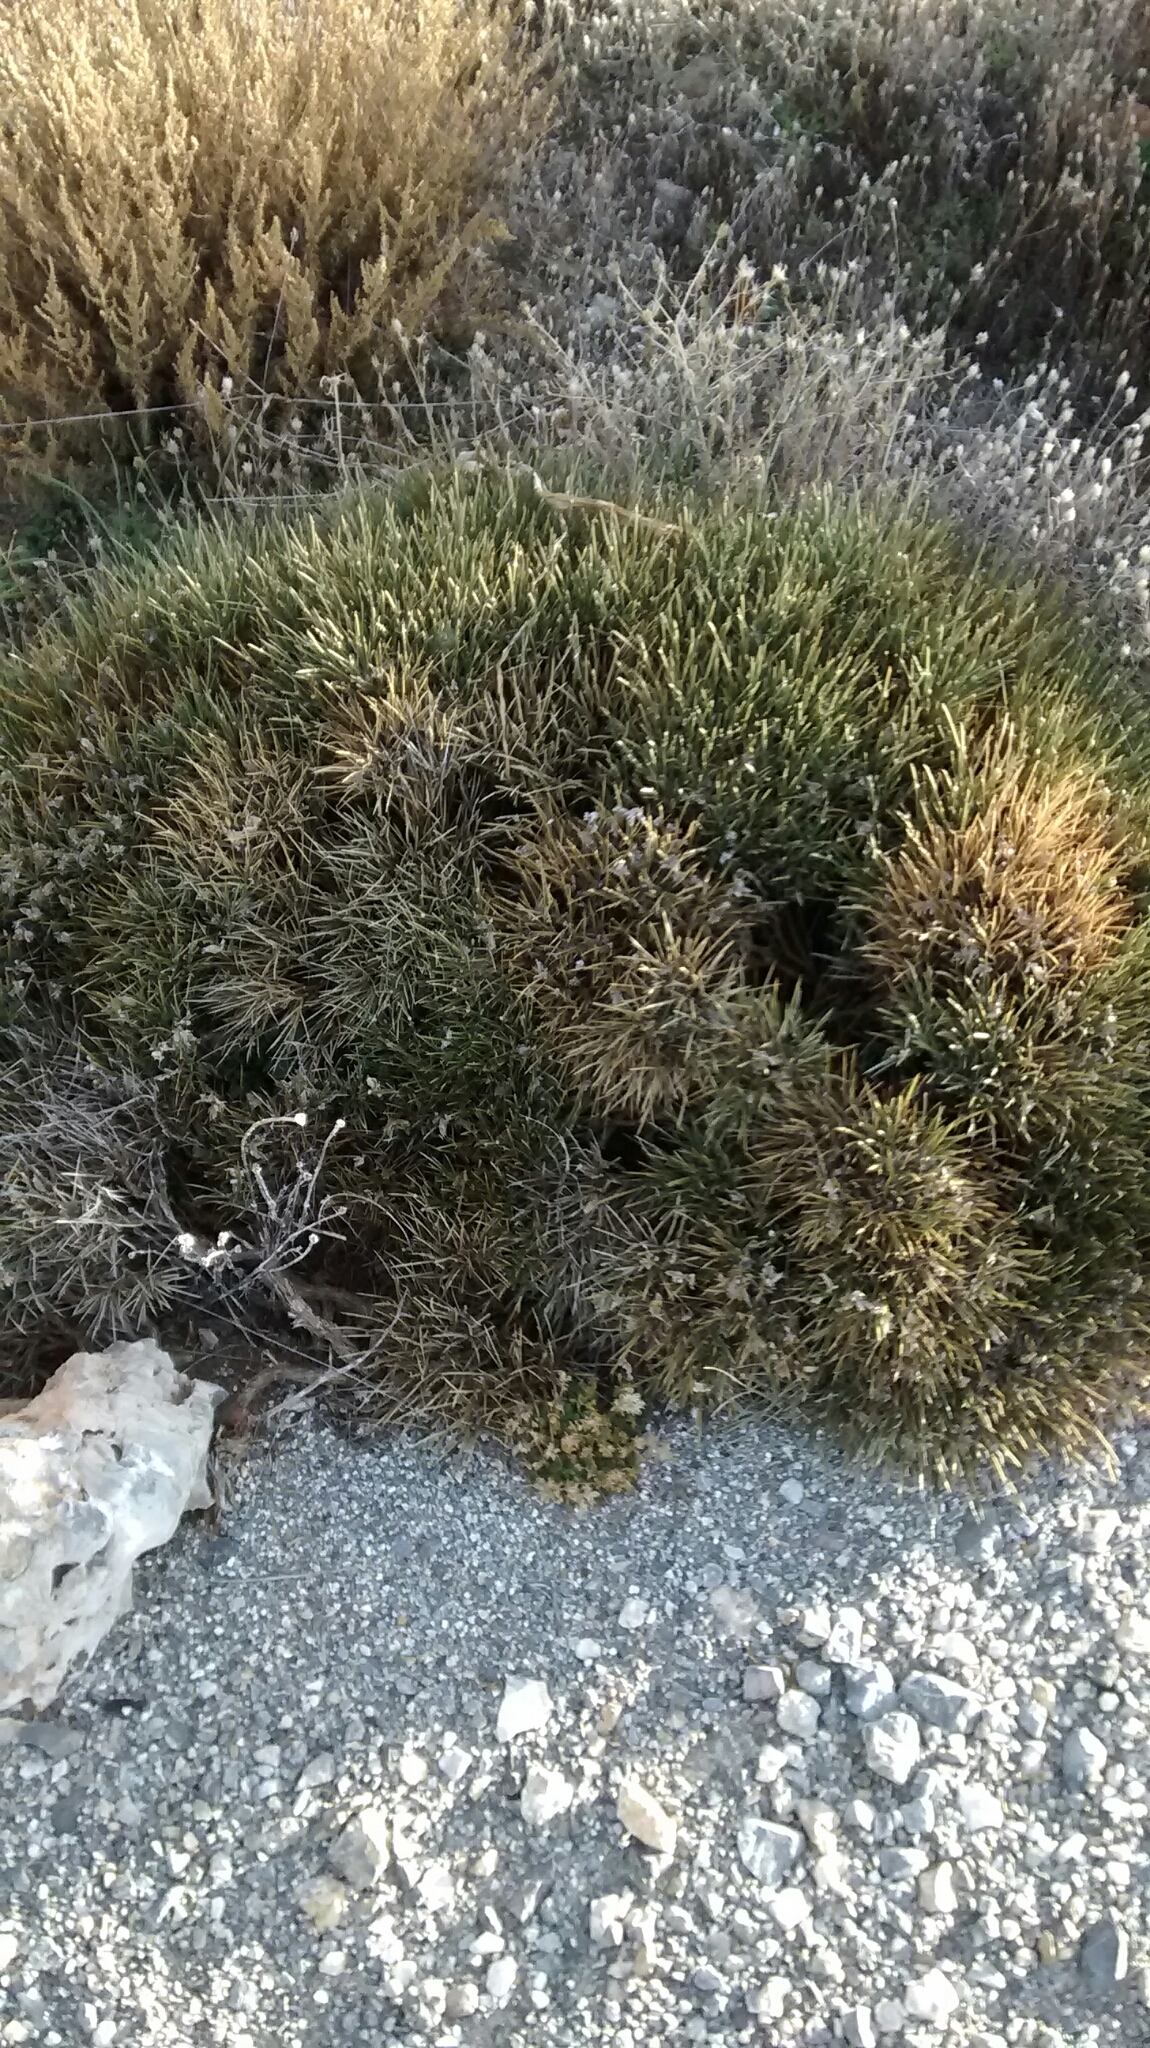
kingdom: Plantae
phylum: Tracheophyta
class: Magnoliopsida
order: Fabales
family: Fabaceae
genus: Erinacea
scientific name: Erinacea anthyllis
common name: Hedgehog-broom
